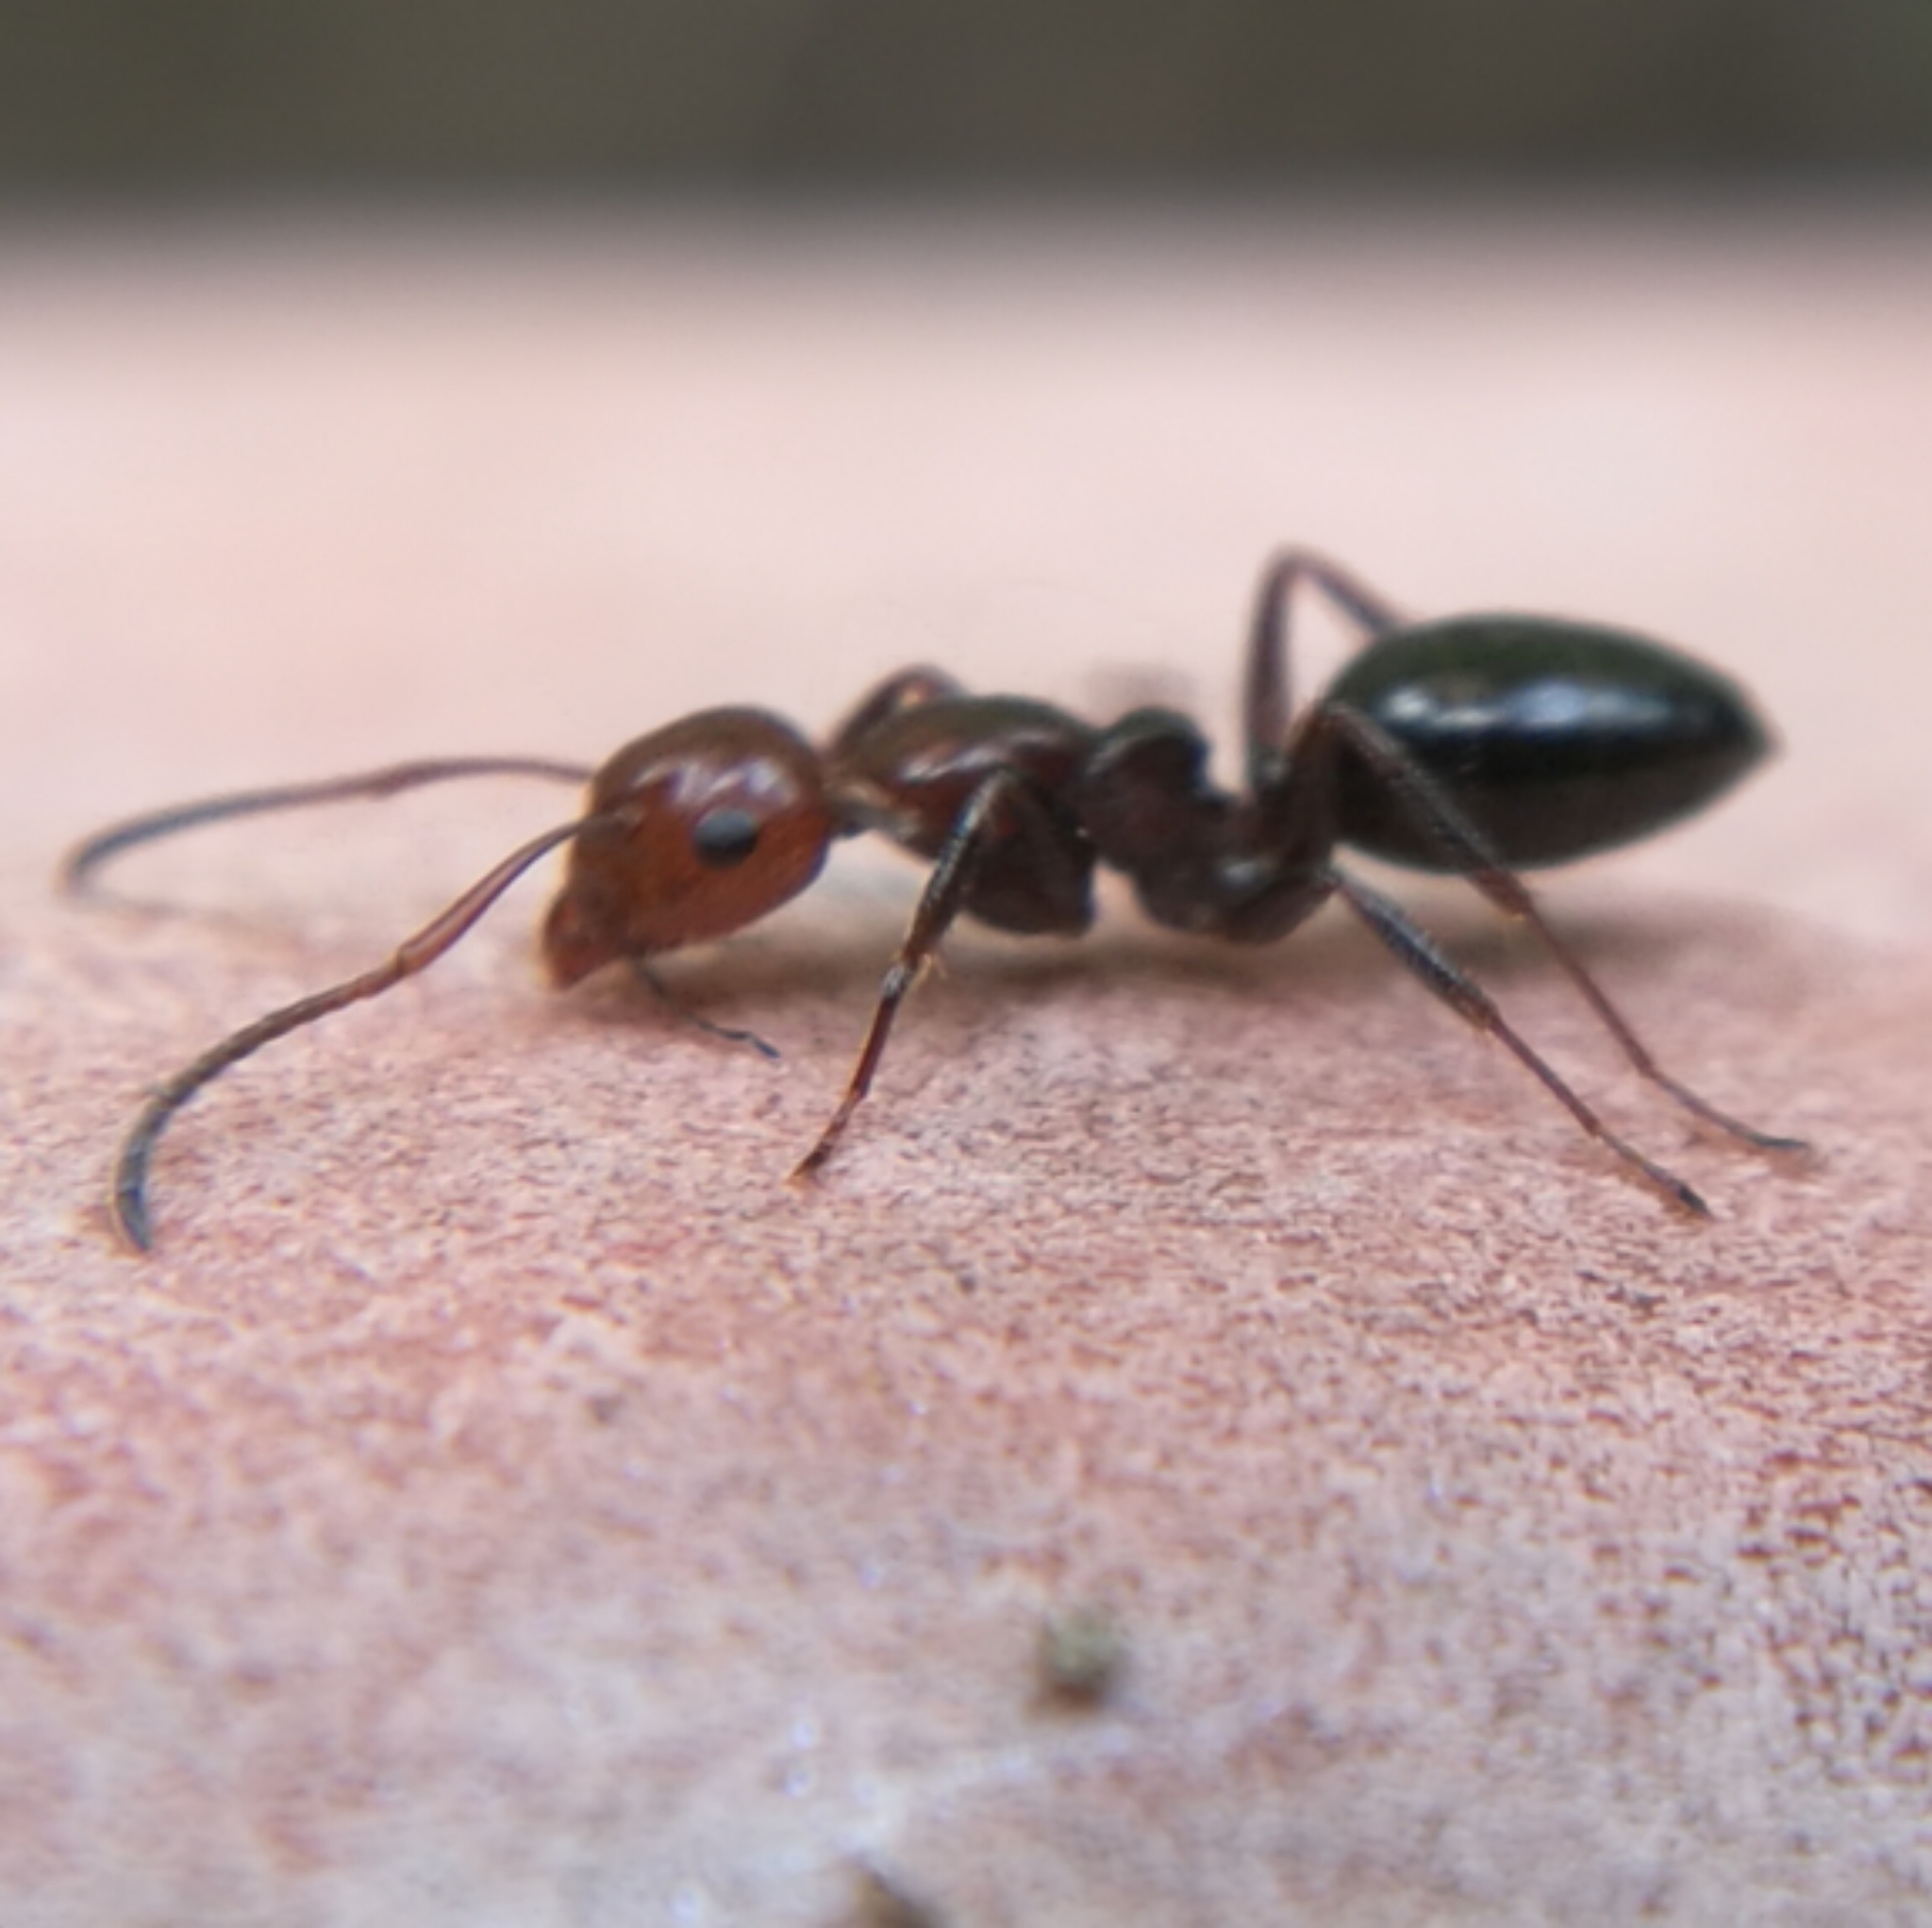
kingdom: Animalia
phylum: Arthropoda
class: Insecta
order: Hymenoptera
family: Formicidae
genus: Camponotus
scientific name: Camponotus lateralis
